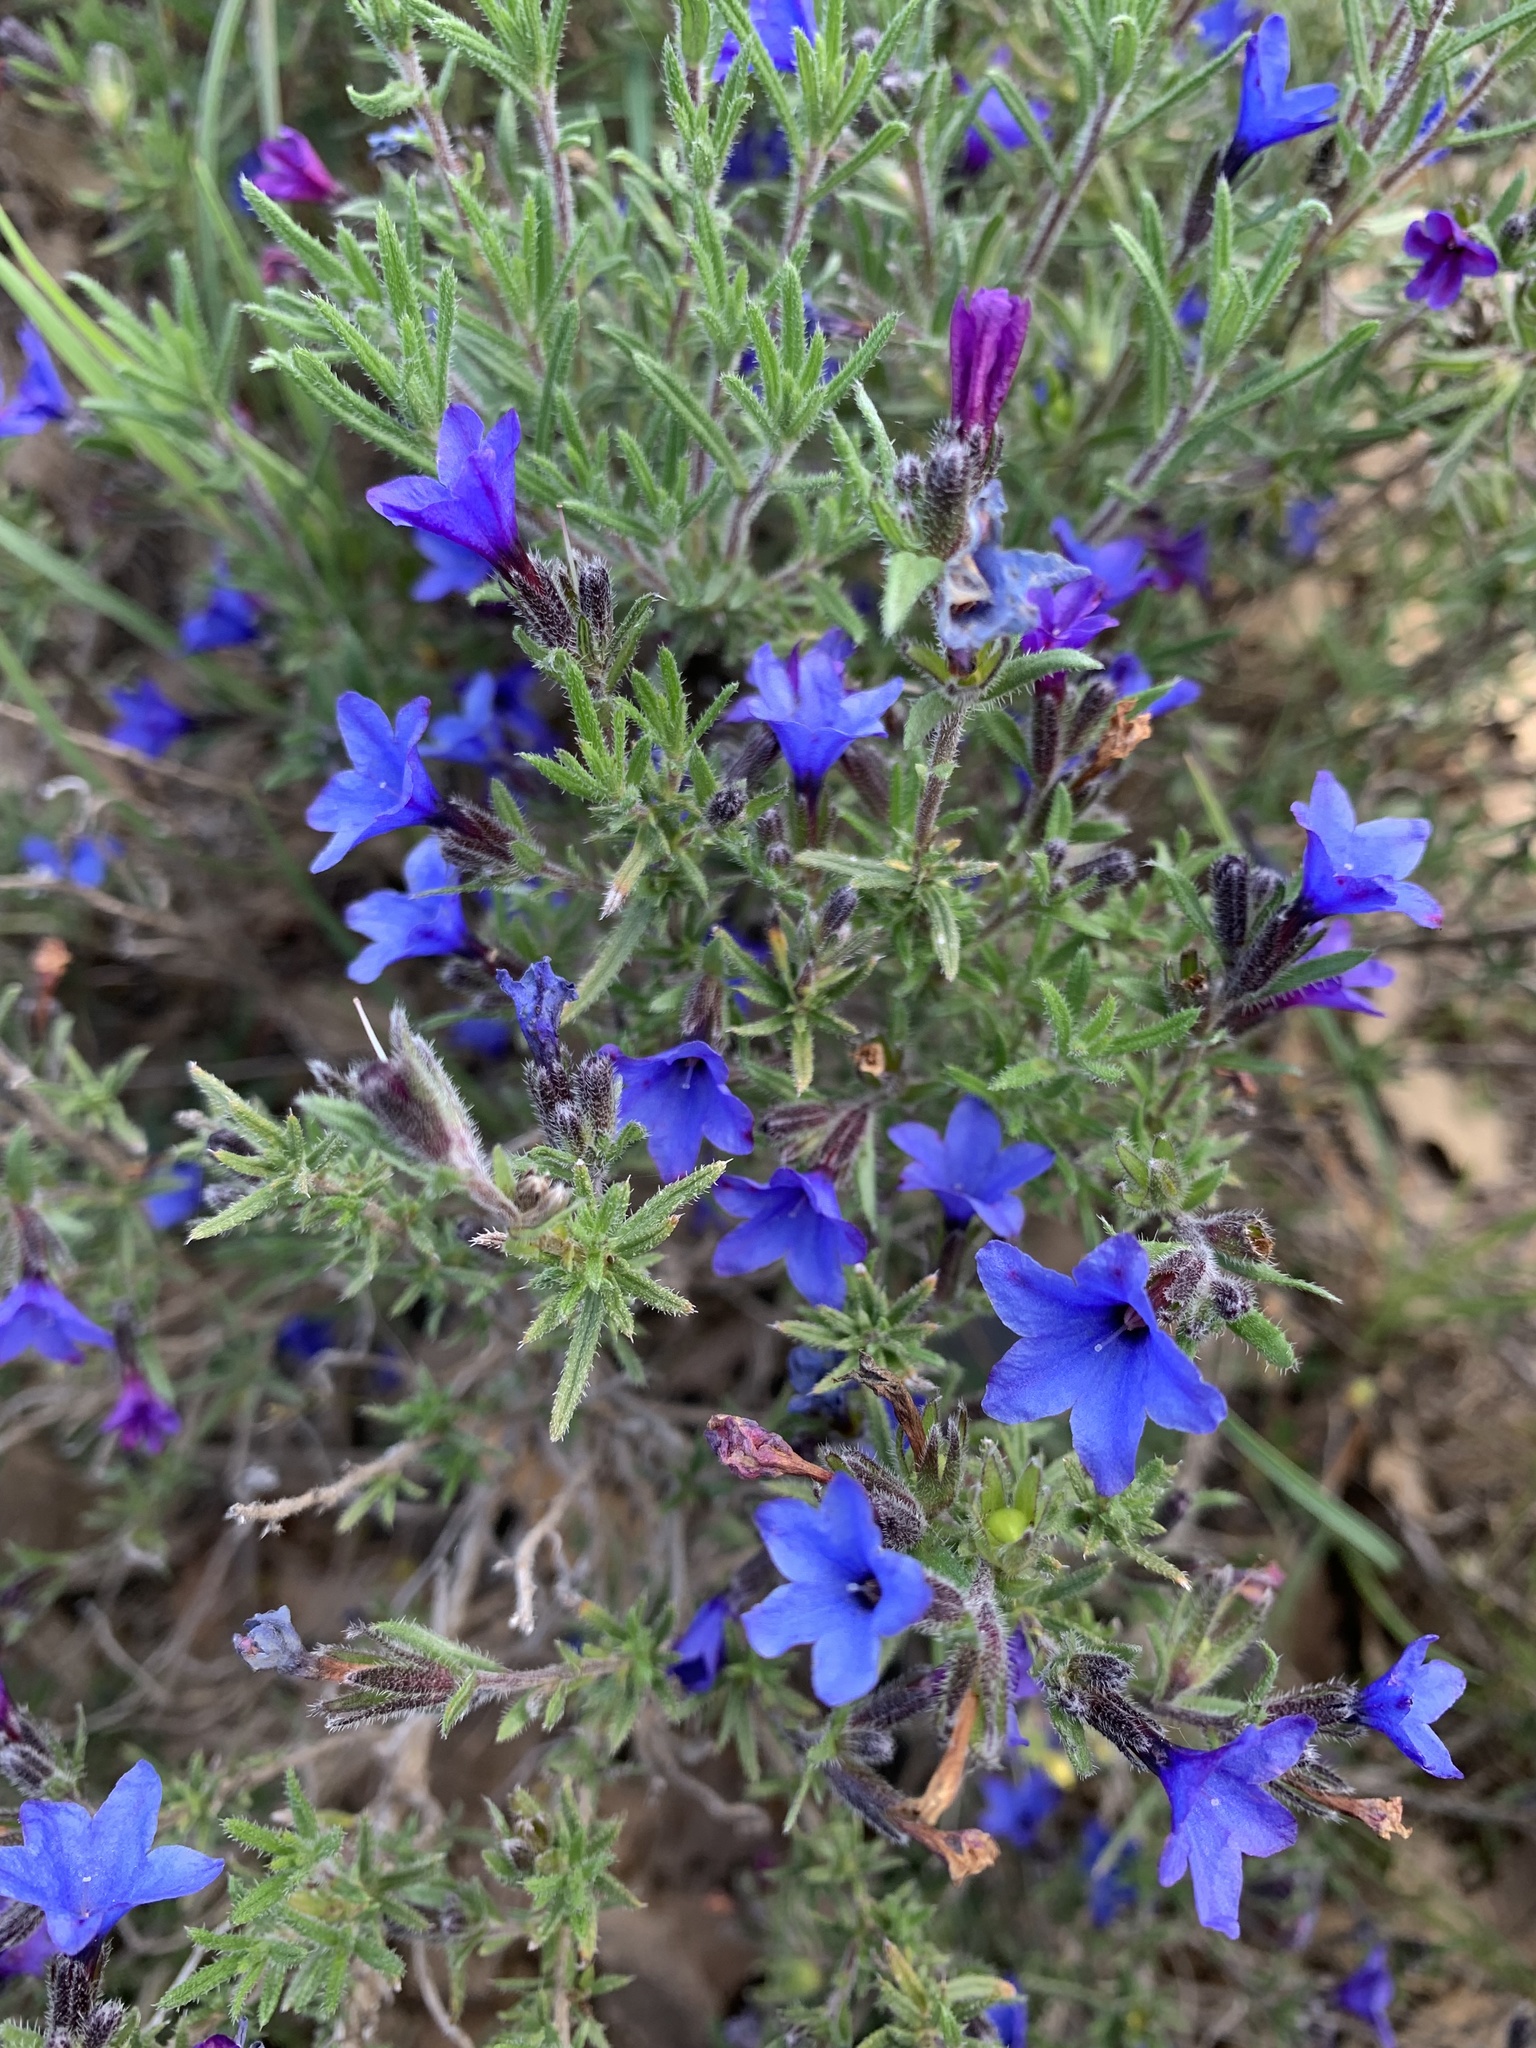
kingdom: Plantae
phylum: Tracheophyta
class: Magnoliopsida
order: Boraginales
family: Boraginaceae
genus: Lithodora
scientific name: Lithodora fruticosa
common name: Shrubby gromwell
